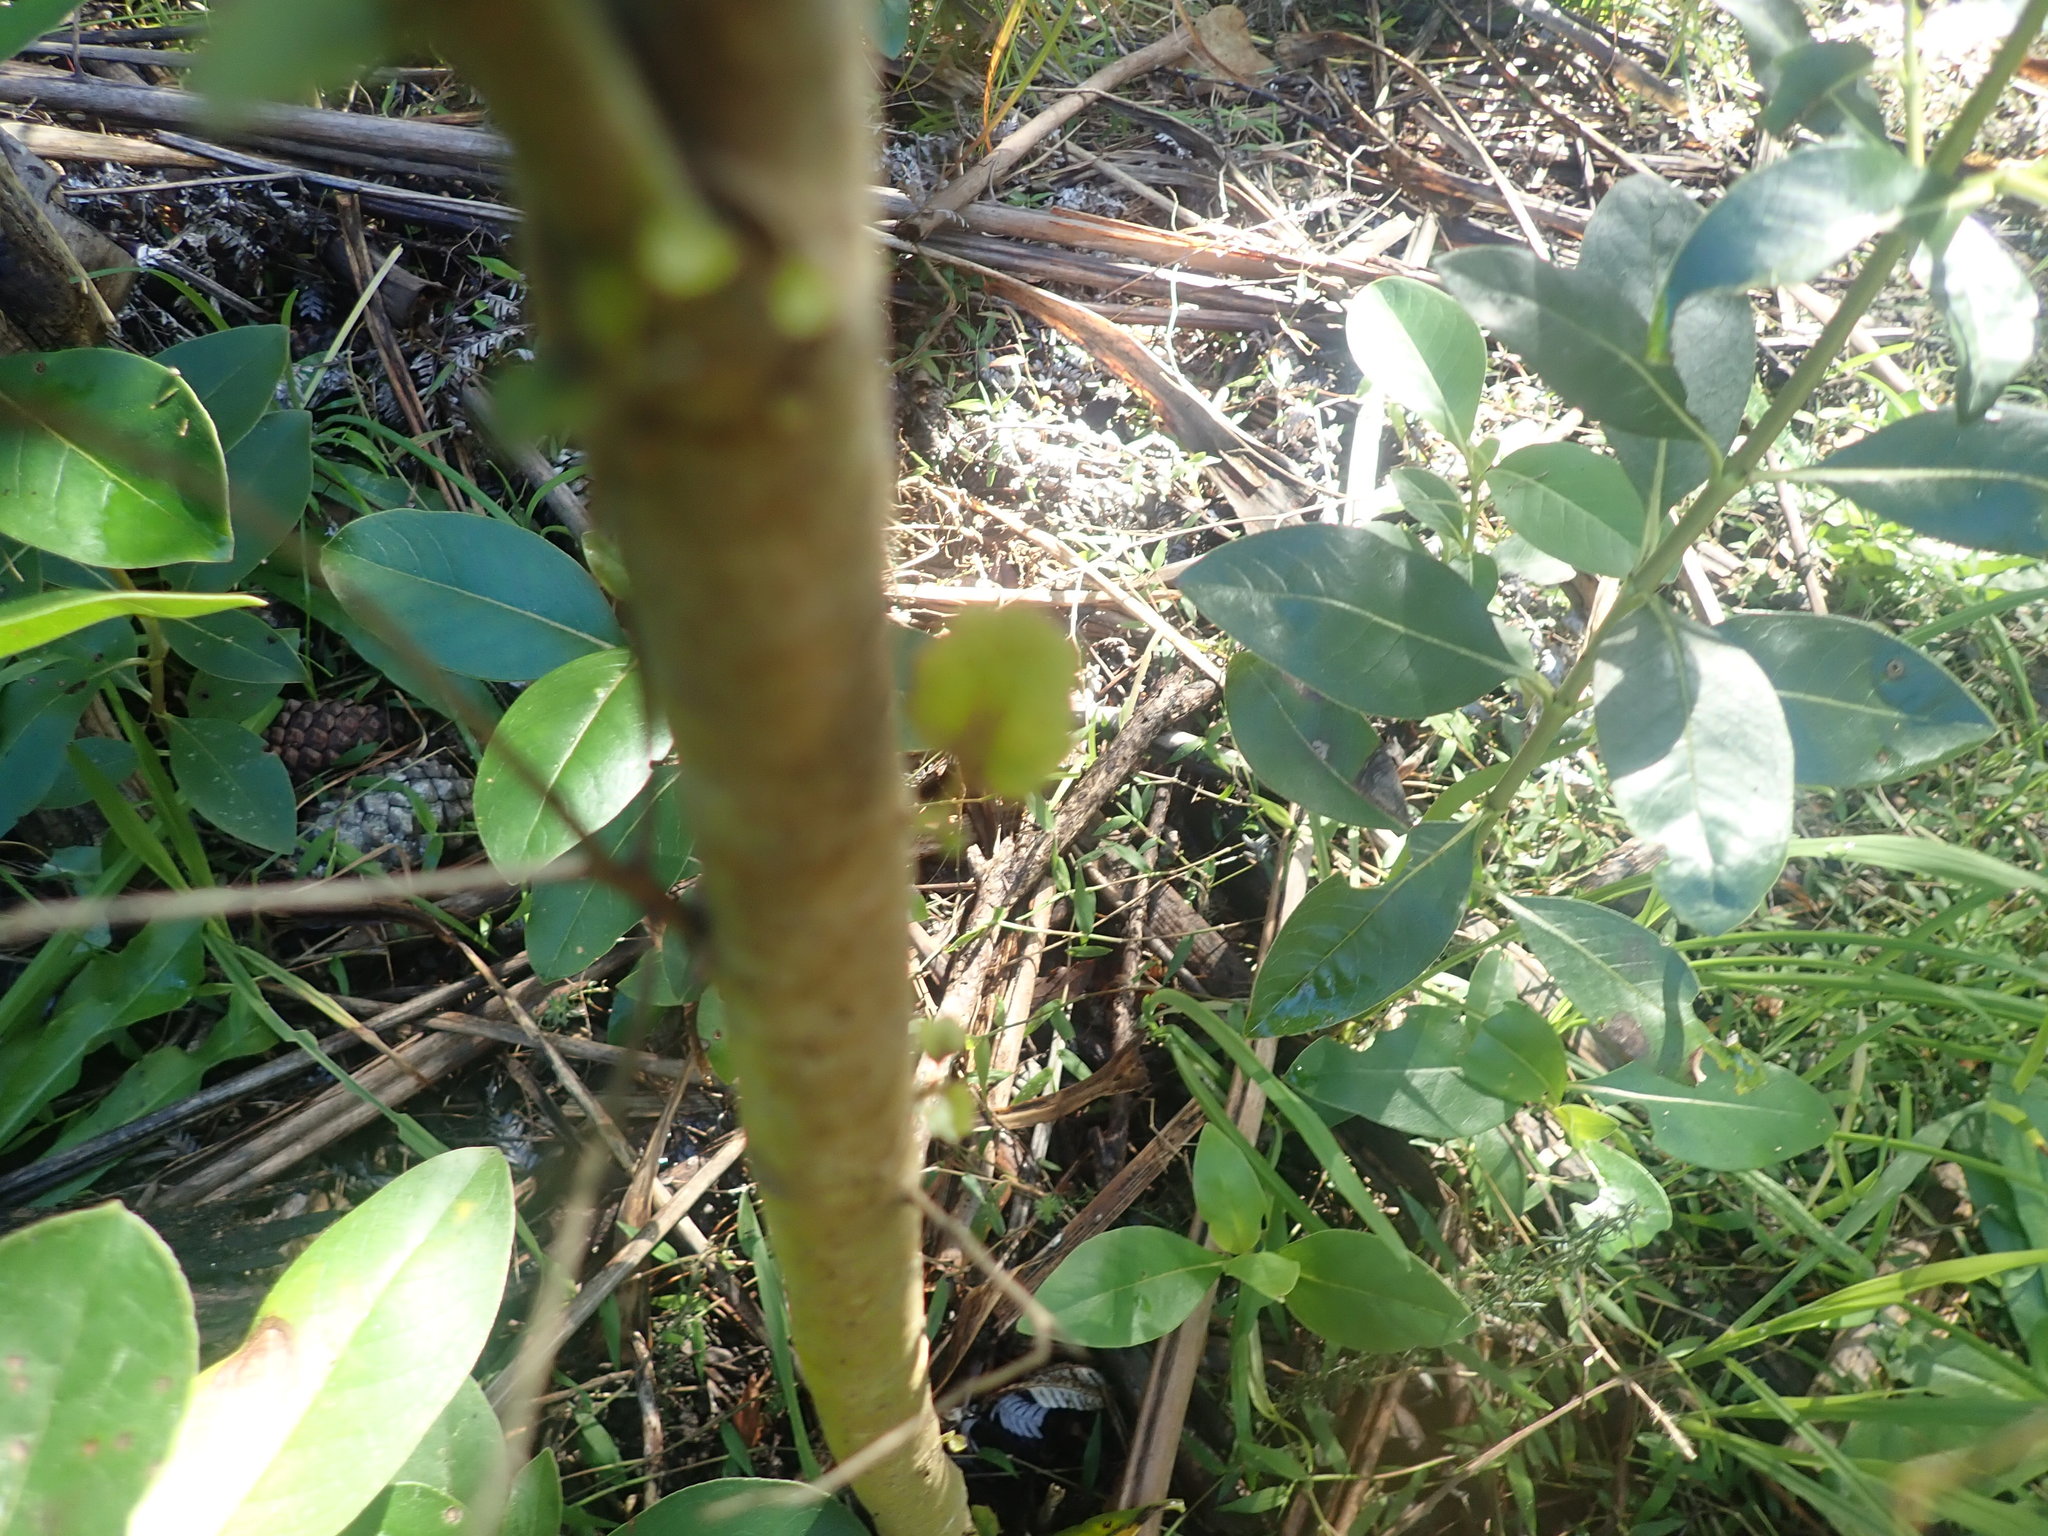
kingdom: Plantae
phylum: Tracheophyta
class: Magnoliopsida
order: Gentianales
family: Rubiaceae
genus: Coprosma
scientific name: Coprosma robusta
